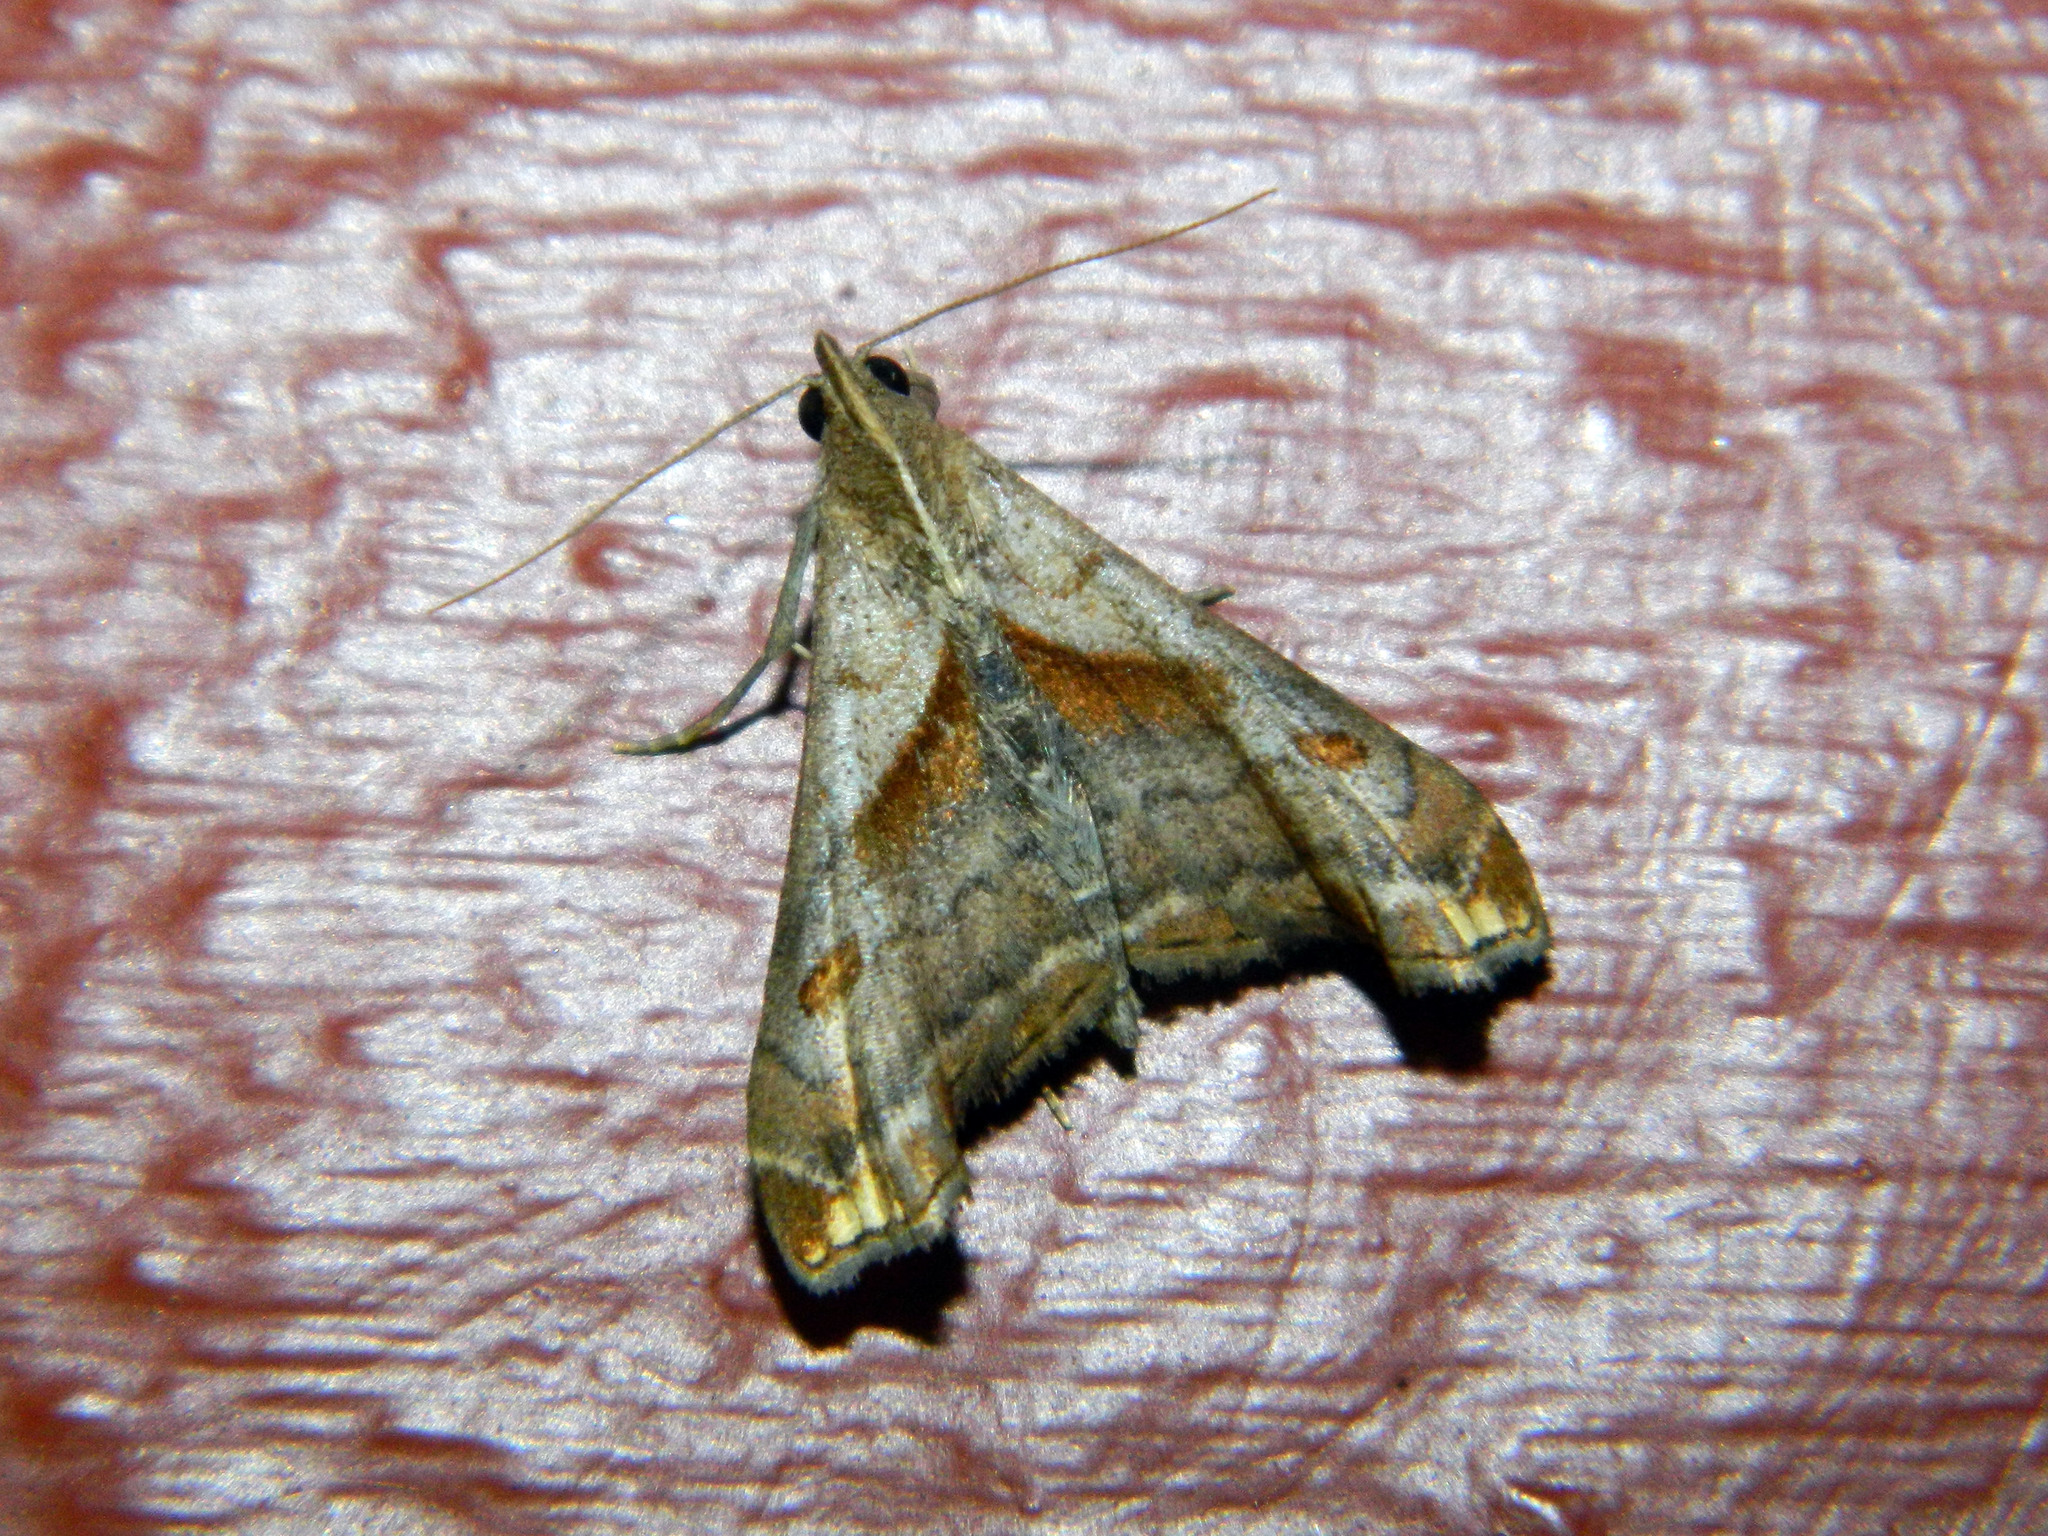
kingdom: Animalia
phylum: Arthropoda
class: Insecta
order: Lepidoptera
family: Erebidae
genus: Palthis
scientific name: Palthis angulalis
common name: Dark-spotted palthis moth
